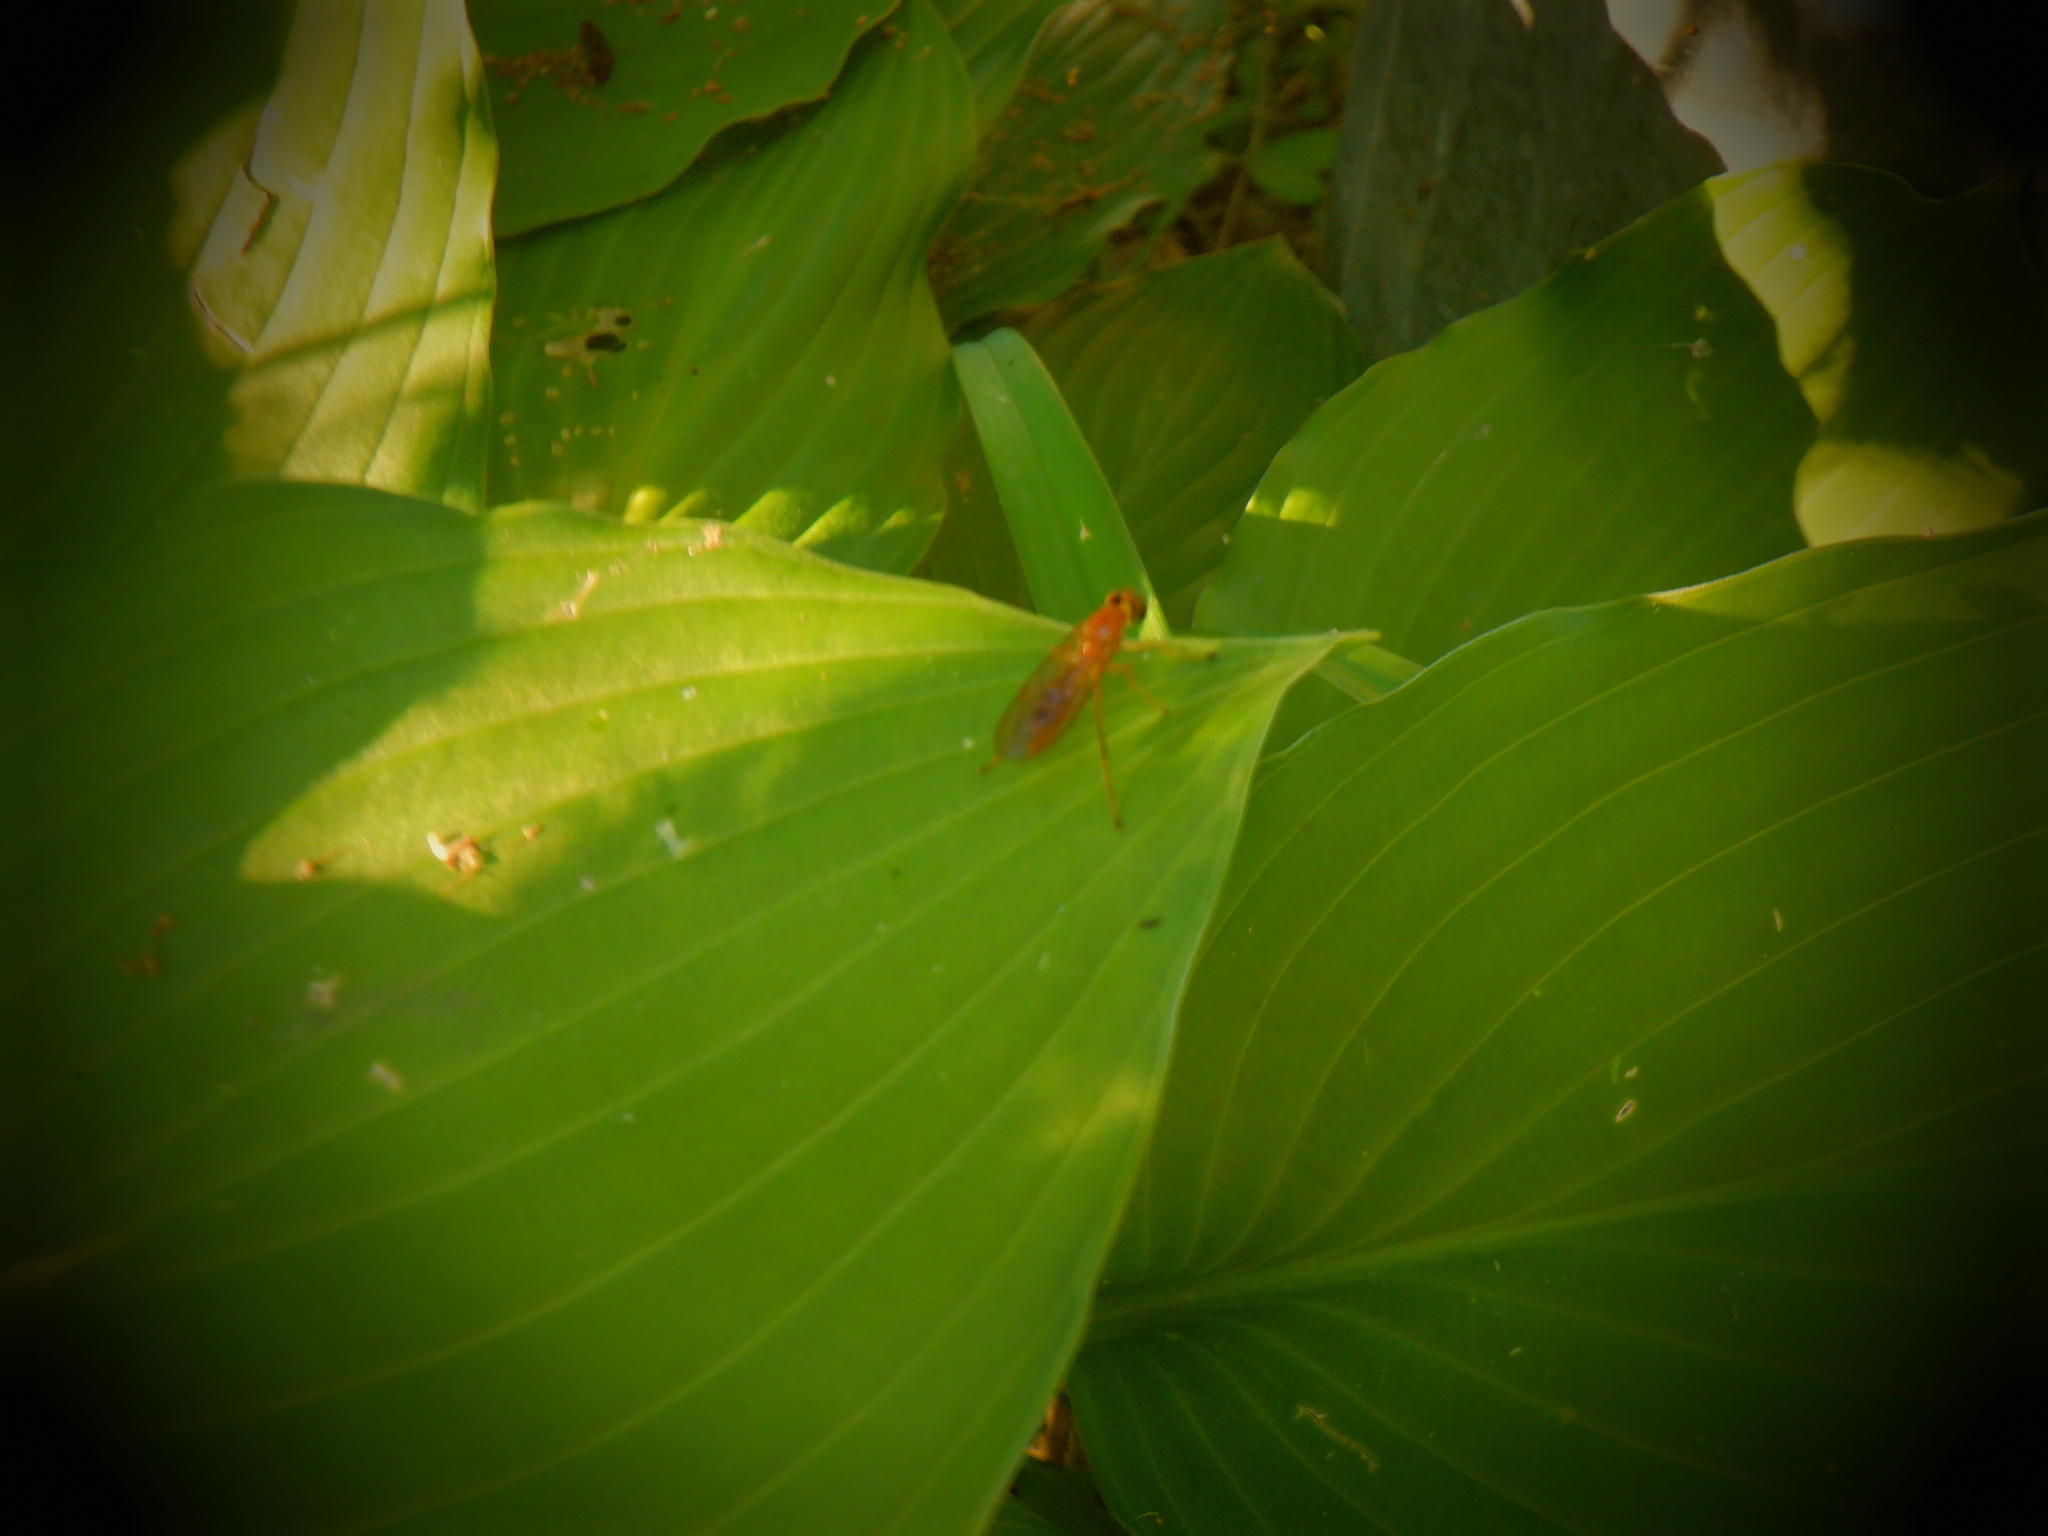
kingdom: Animalia
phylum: Arthropoda
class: Insecta
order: Diptera
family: Stratiomyidae
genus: Ptecticus
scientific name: Ptecticus trivittatus
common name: Compost fly
